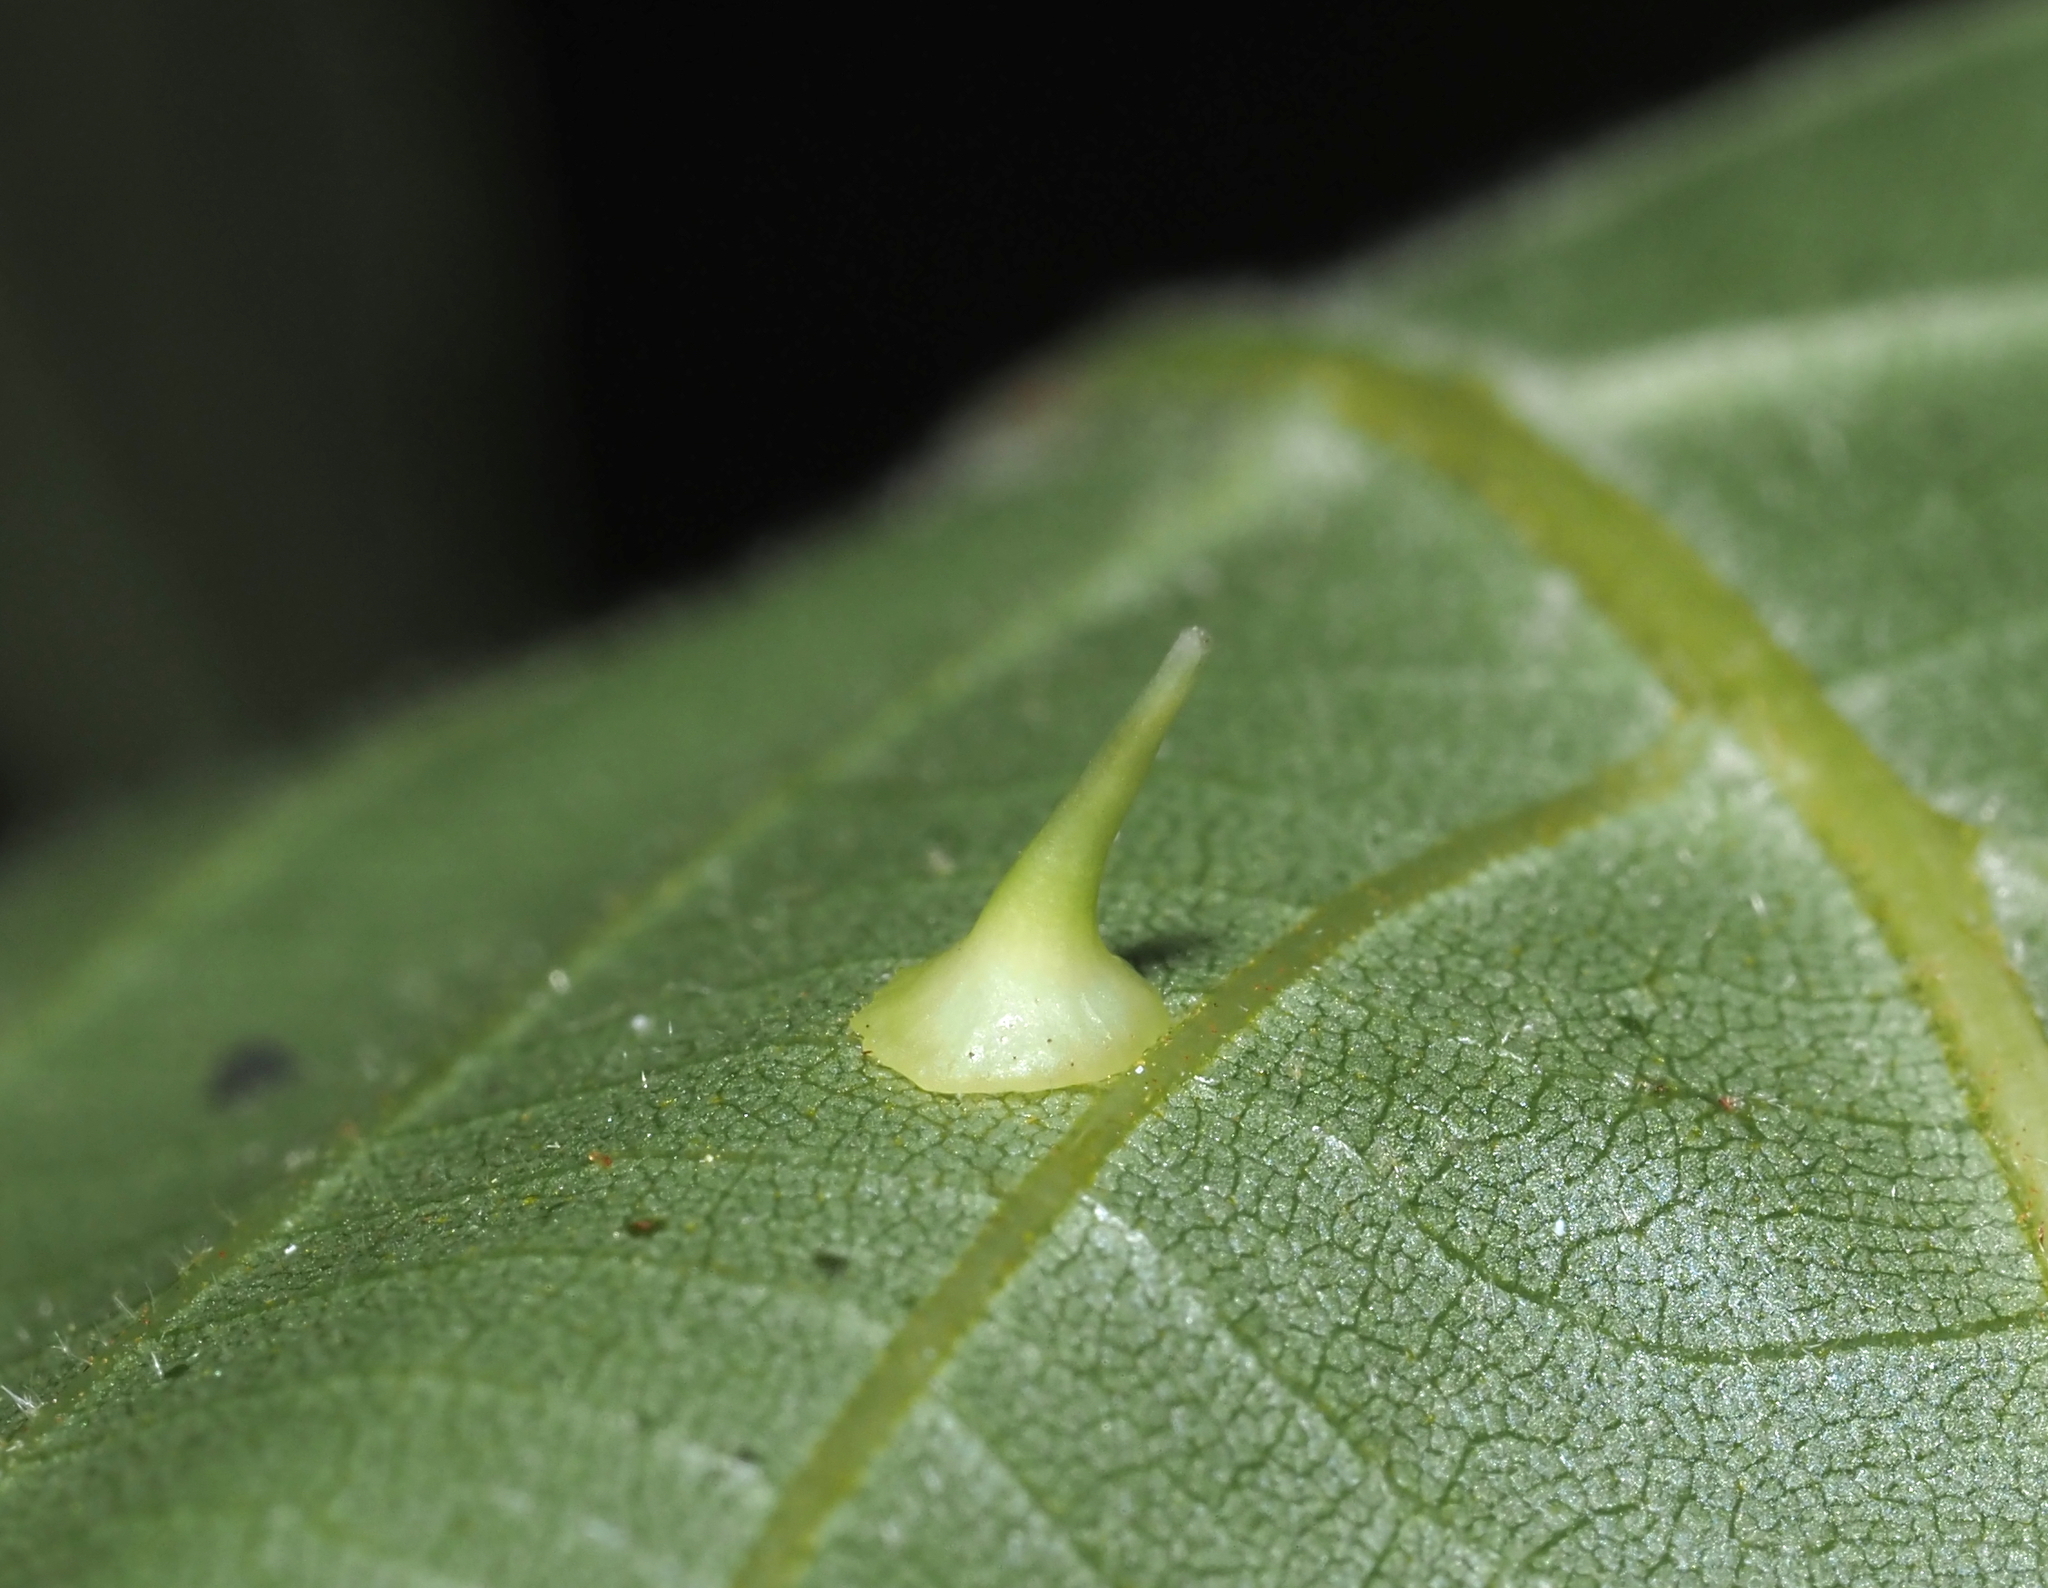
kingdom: Animalia
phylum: Arthropoda
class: Insecta
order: Diptera
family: Cecidomyiidae
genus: Caryomyia
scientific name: Caryomyia stellata
